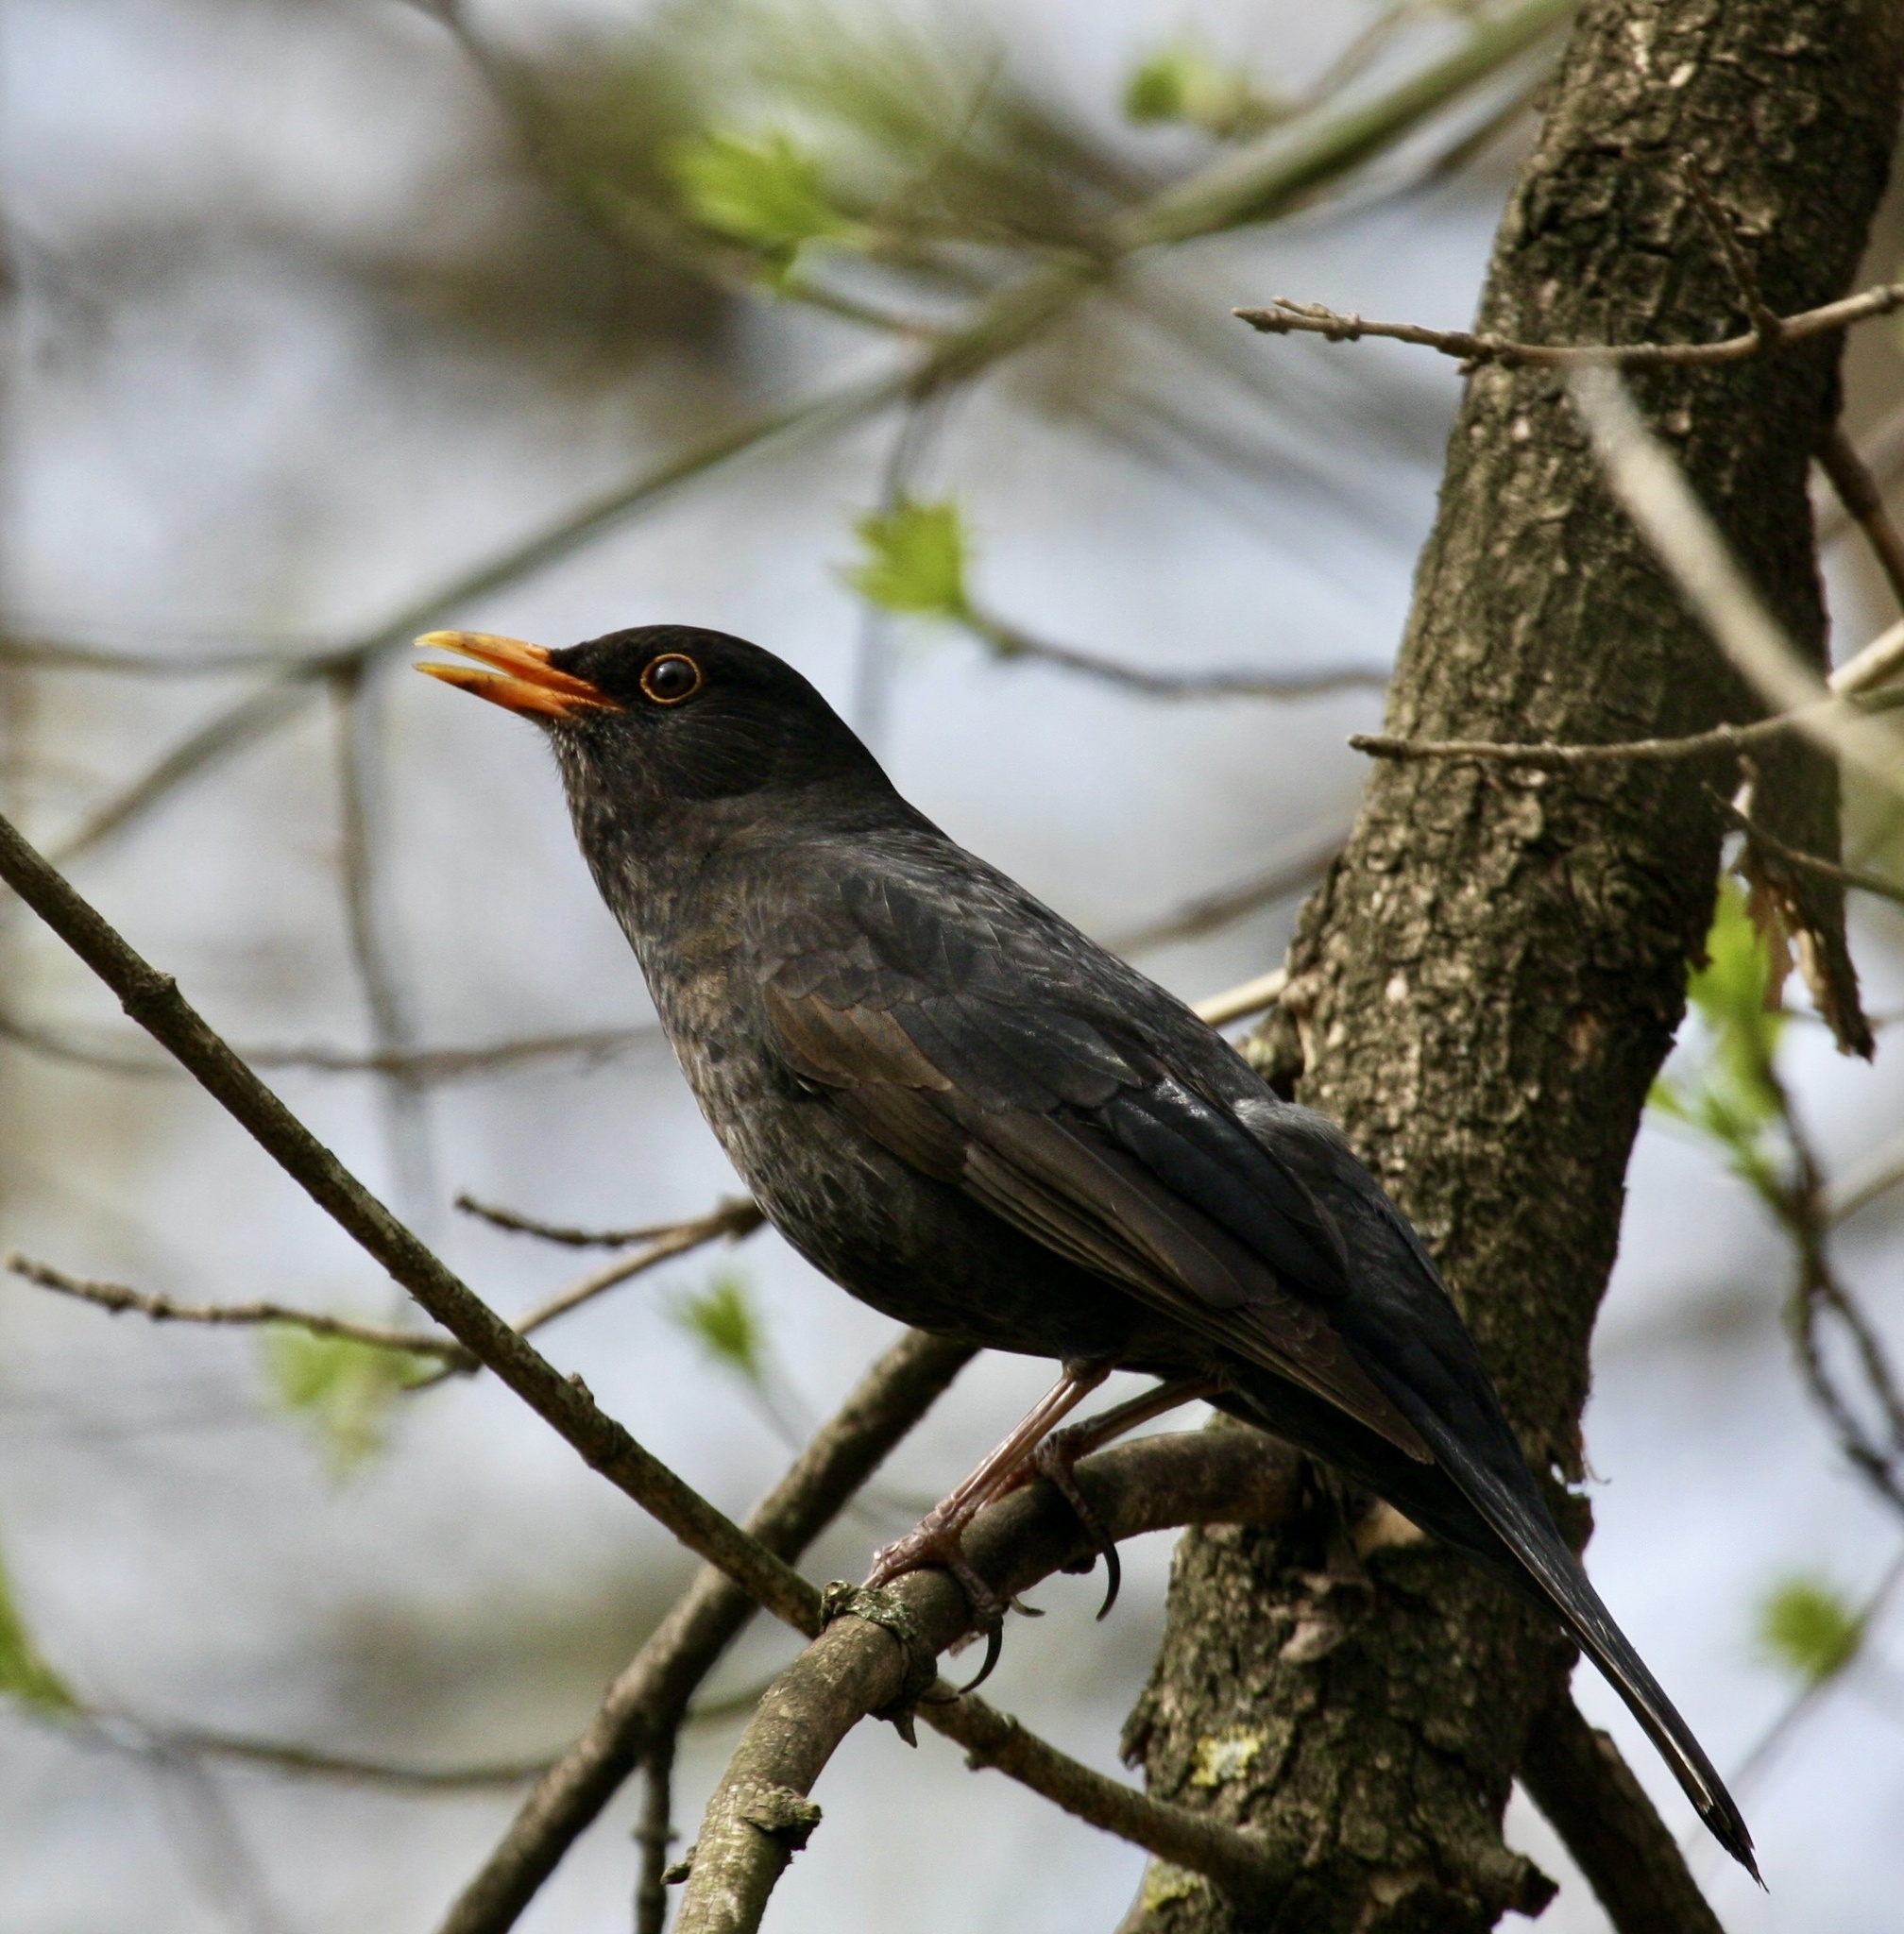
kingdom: Animalia
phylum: Chordata
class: Aves
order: Passeriformes
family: Turdidae
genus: Turdus
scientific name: Turdus merula
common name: Common blackbird
